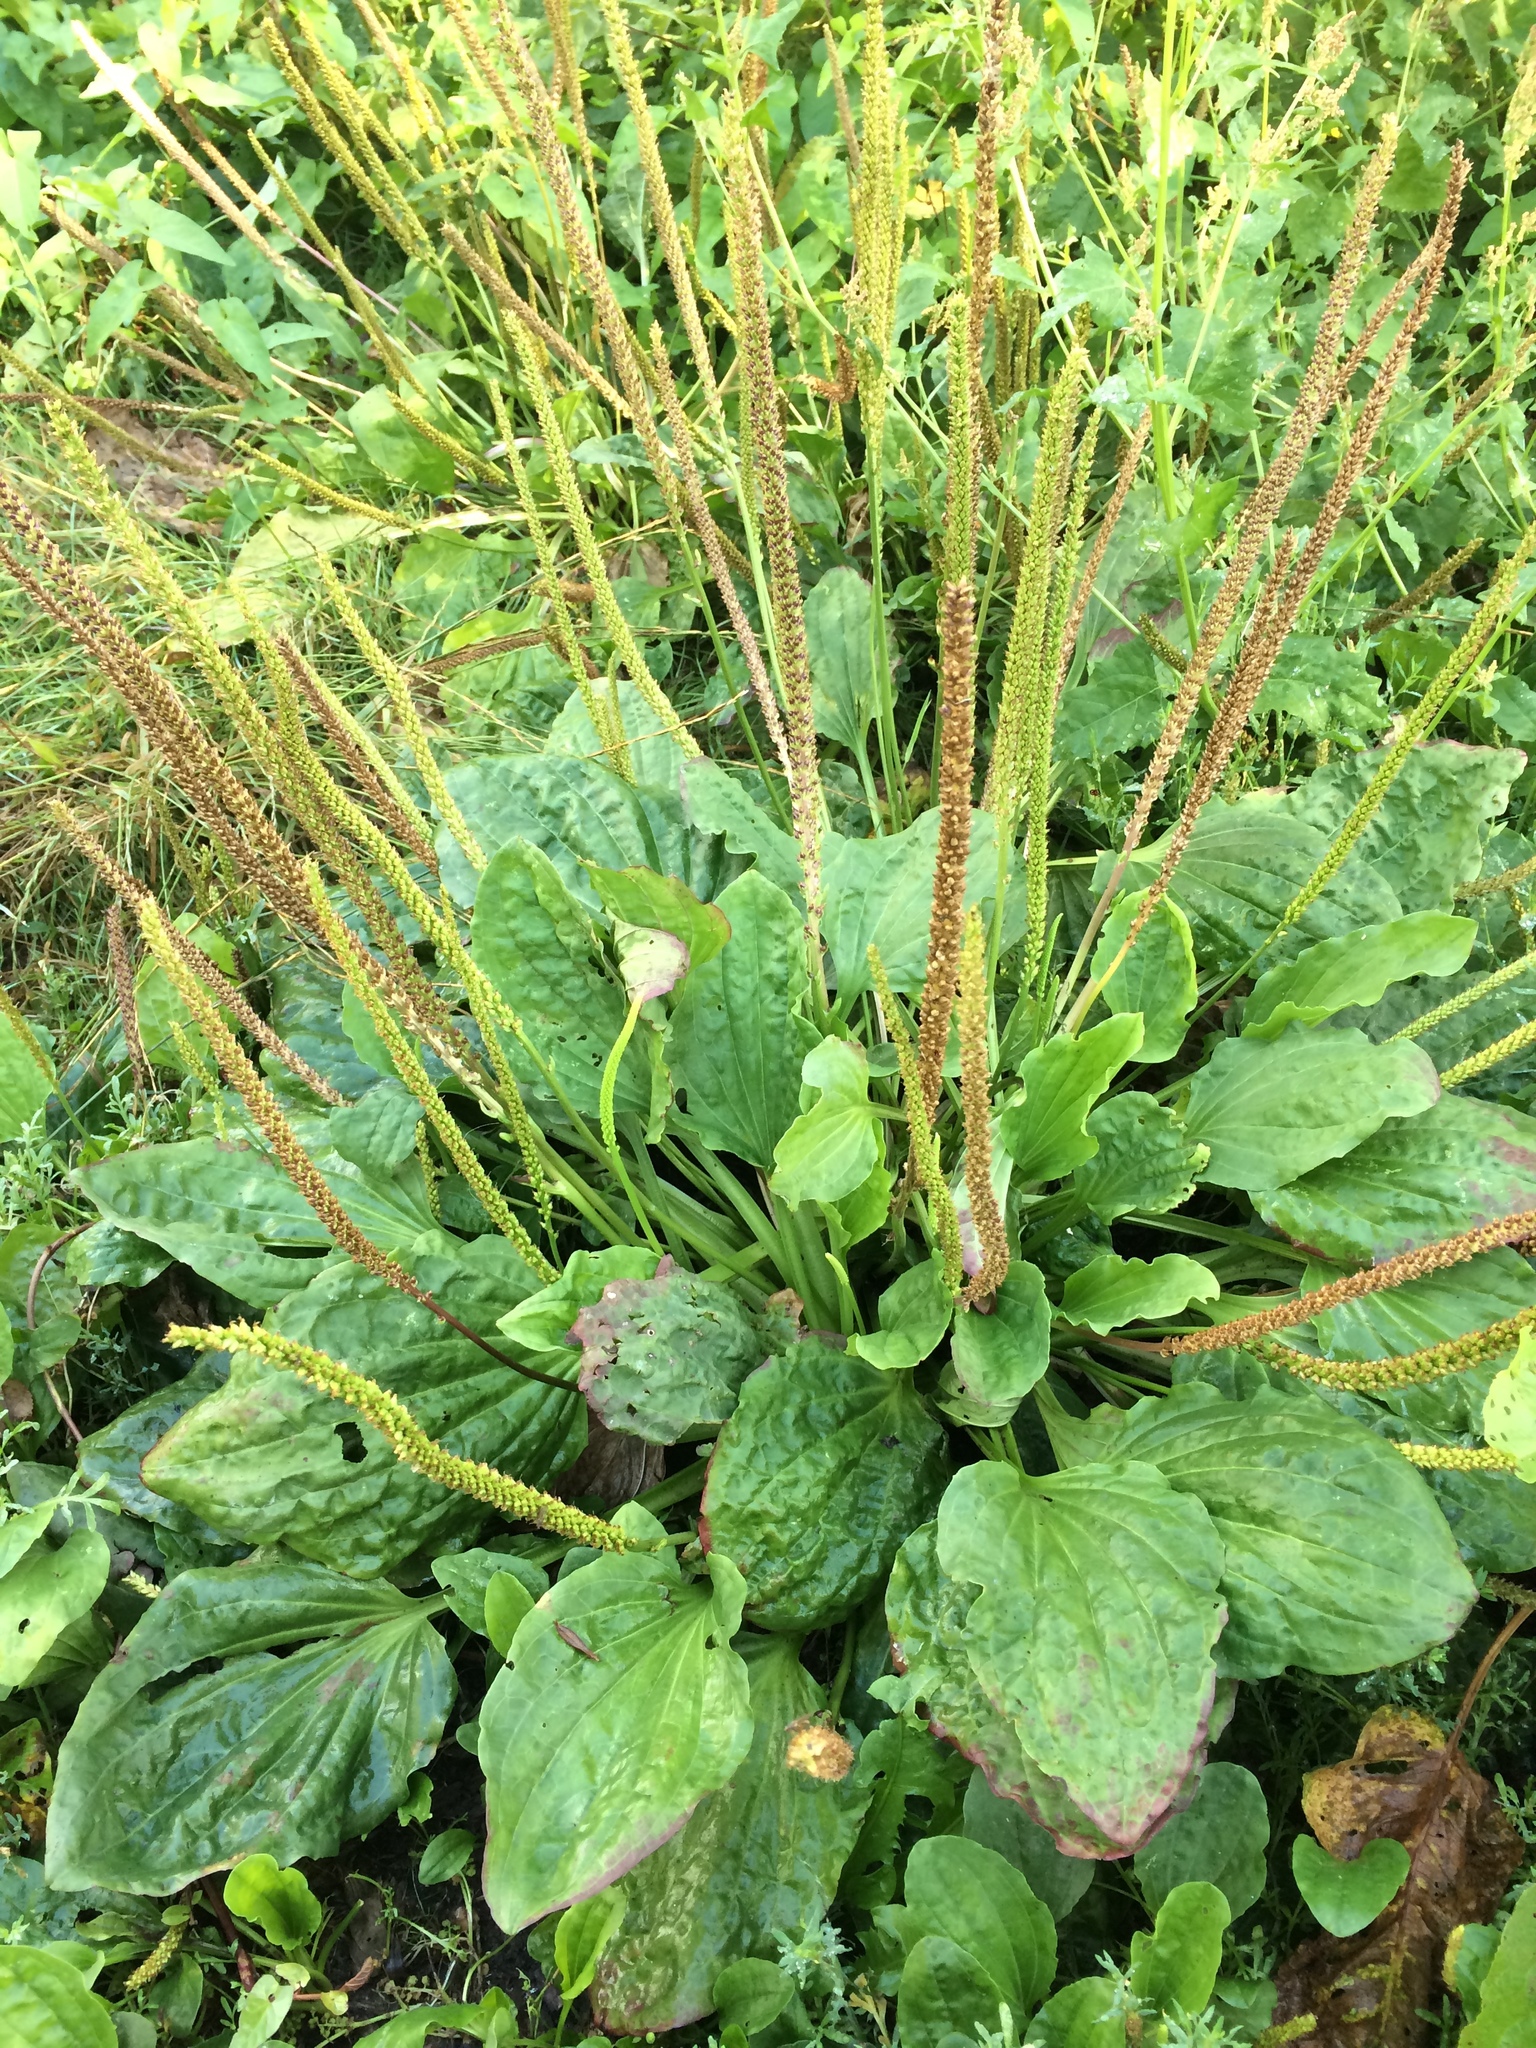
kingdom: Plantae
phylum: Tracheophyta
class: Magnoliopsida
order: Lamiales
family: Plantaginaceae
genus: Plantago
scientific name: Plantago major
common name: Common plantain
